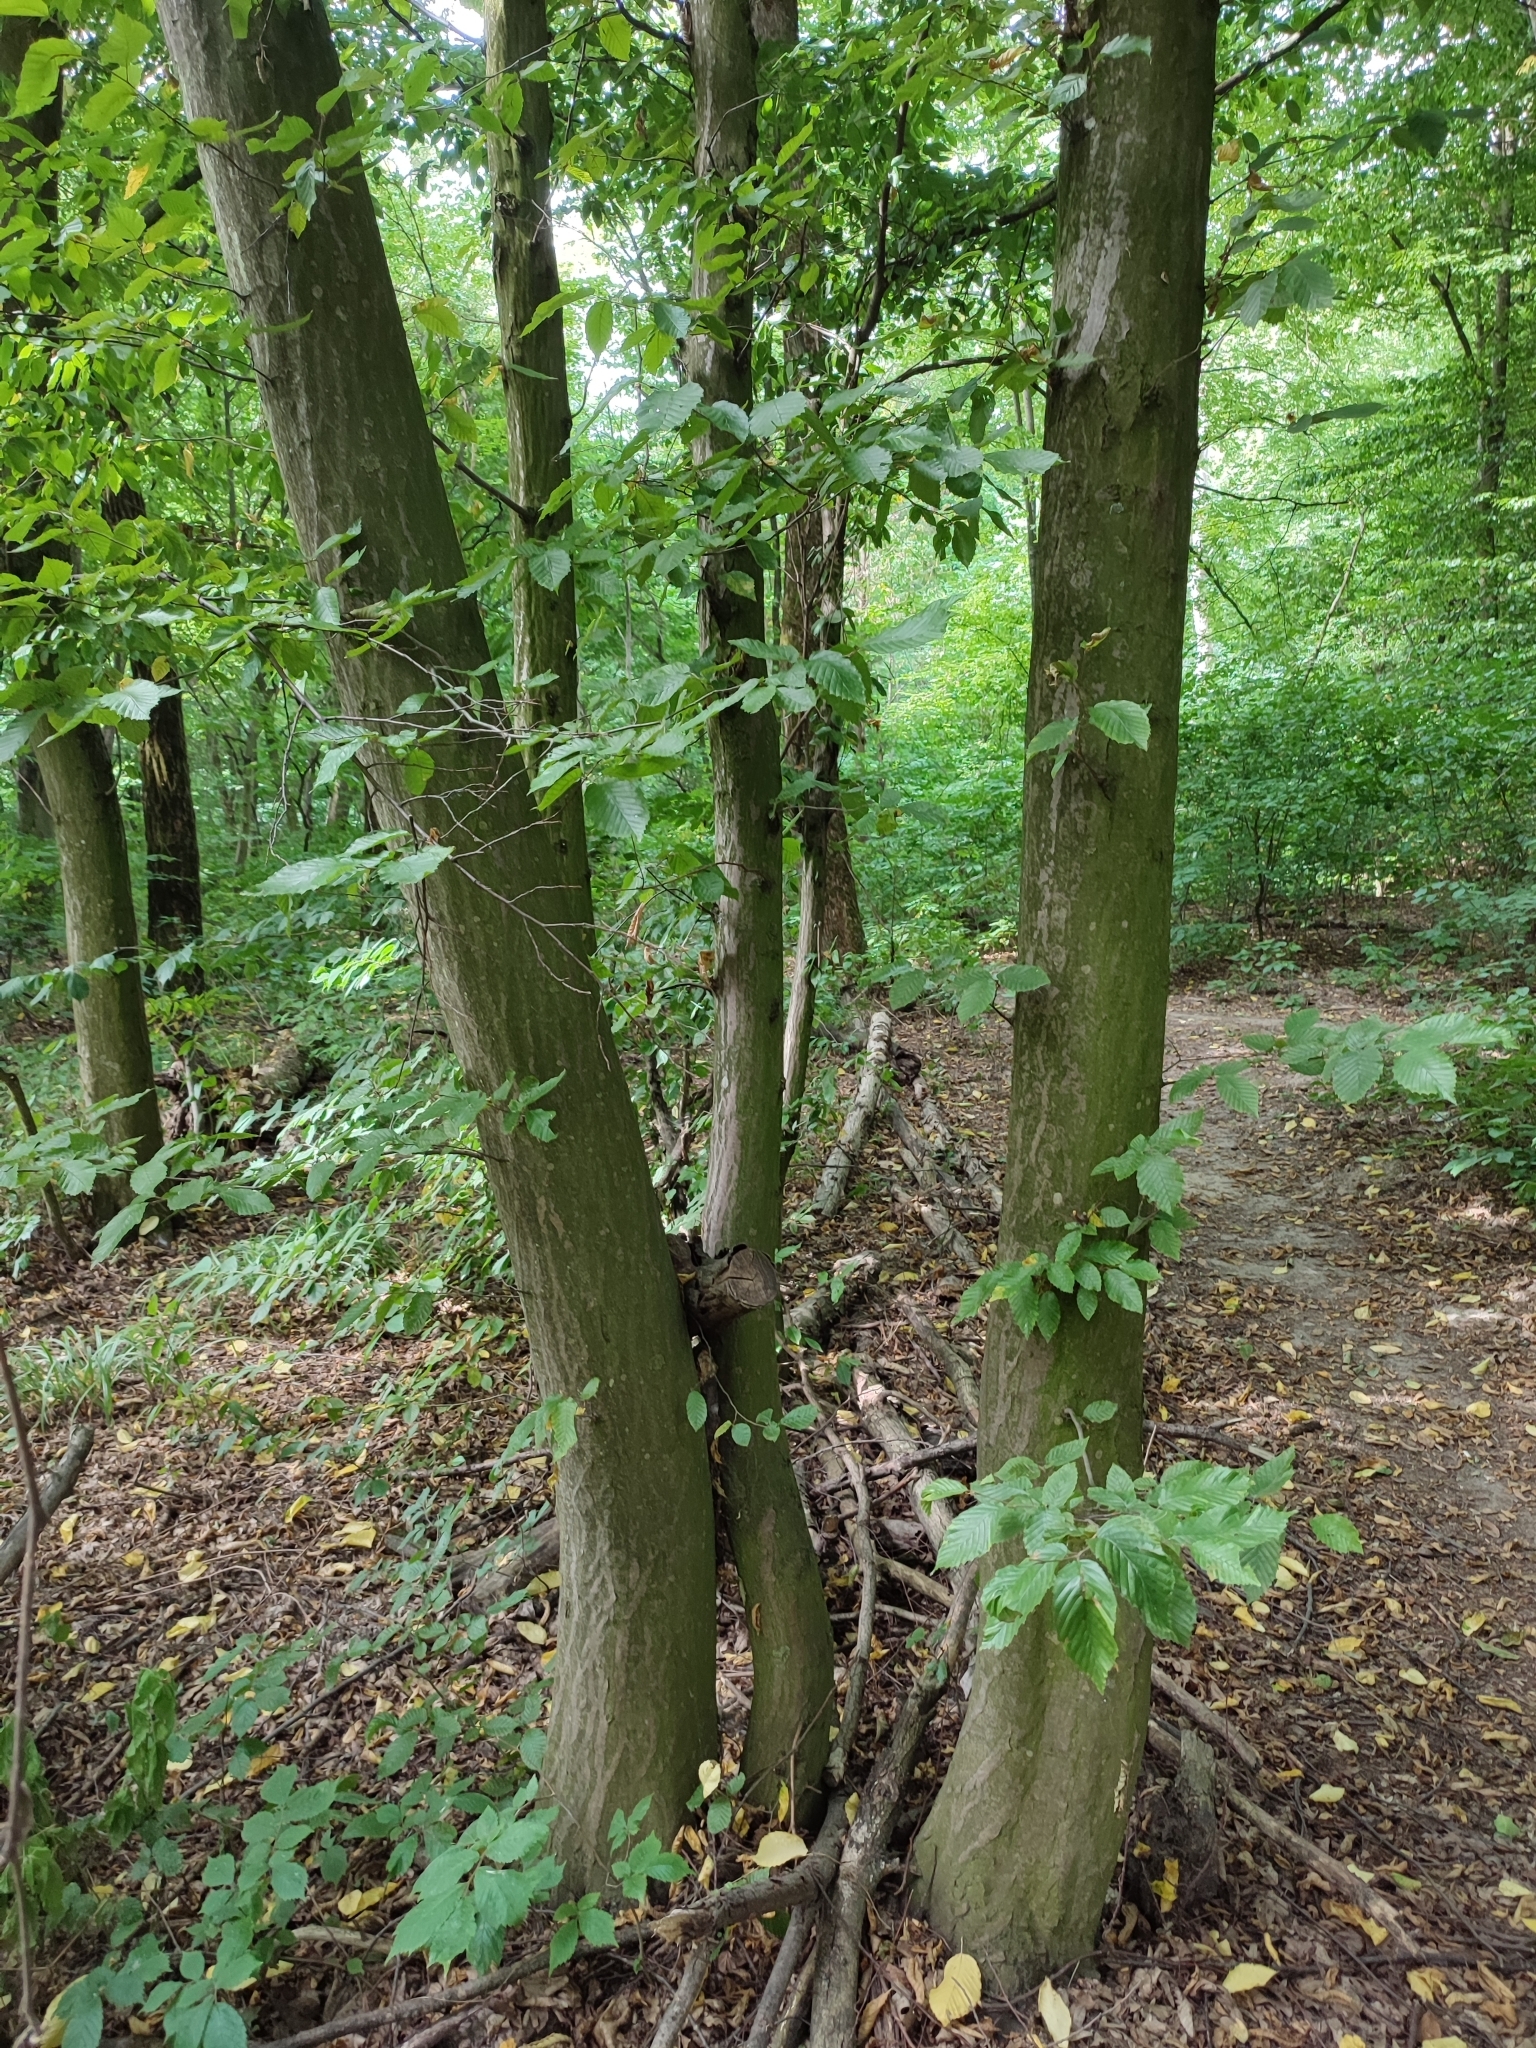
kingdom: Plantae
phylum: Tracheophyta
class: Magnoliopsida
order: Fagales
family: Betulaceae
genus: Carpinus
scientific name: Carpinus betulus
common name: Hornbeam
